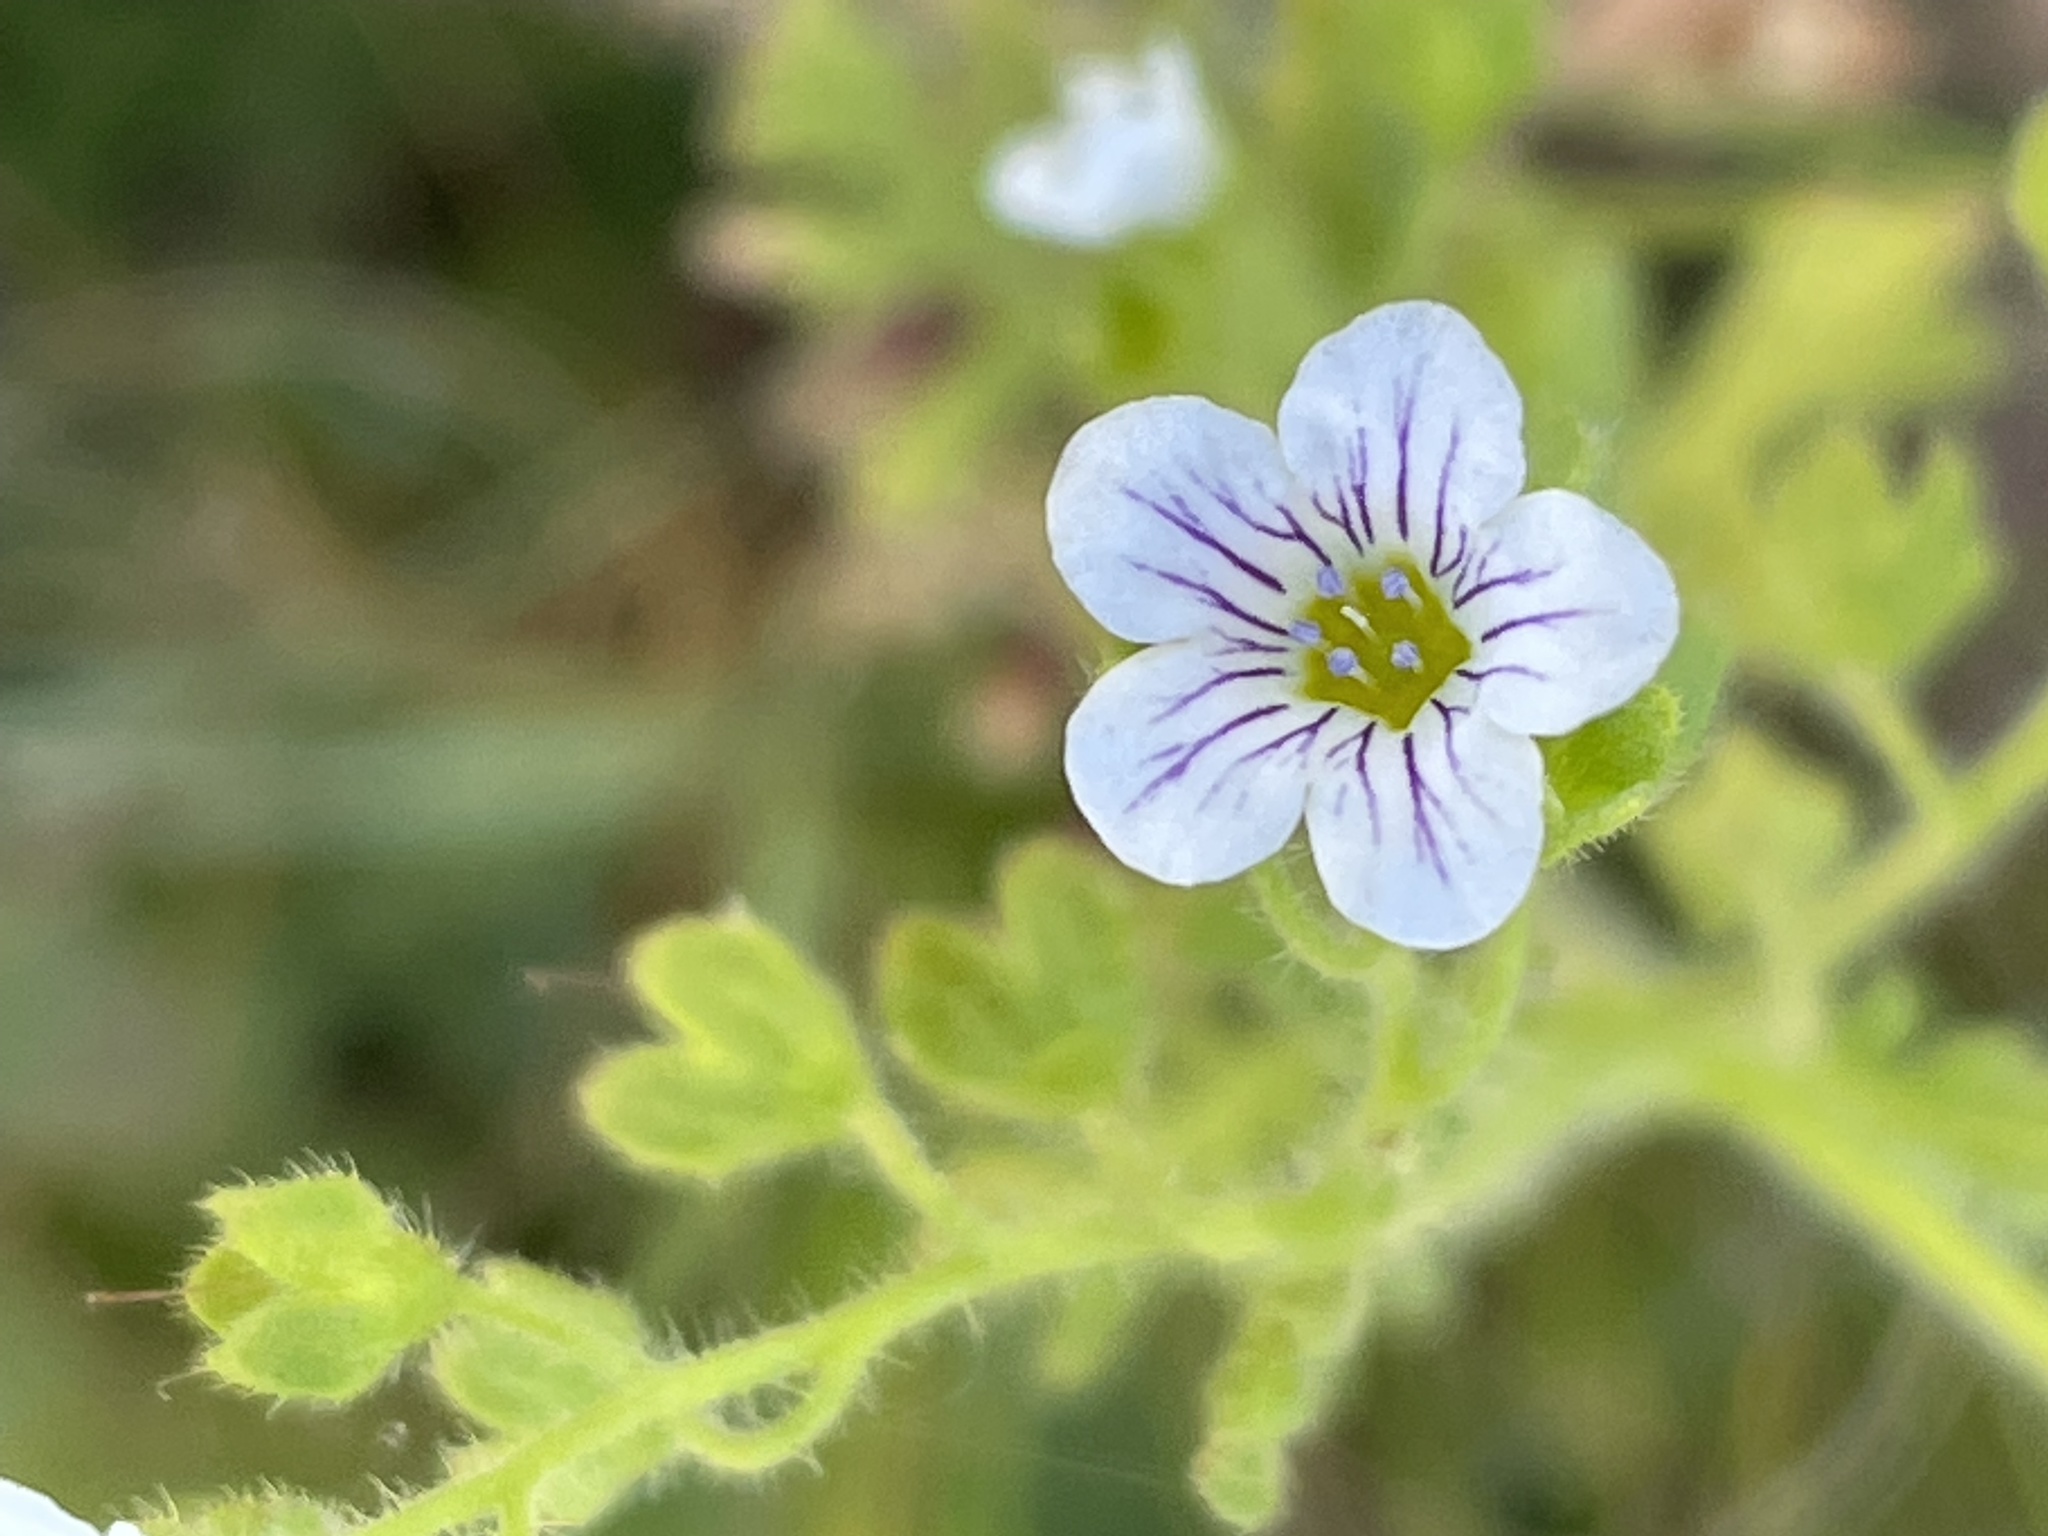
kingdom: Plantae
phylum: Tracheophyta
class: Magnoliopsida
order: Boraginales
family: Hydrophyllaceae
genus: Eucrypta
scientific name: Eucrypta chrysanthemifolia
